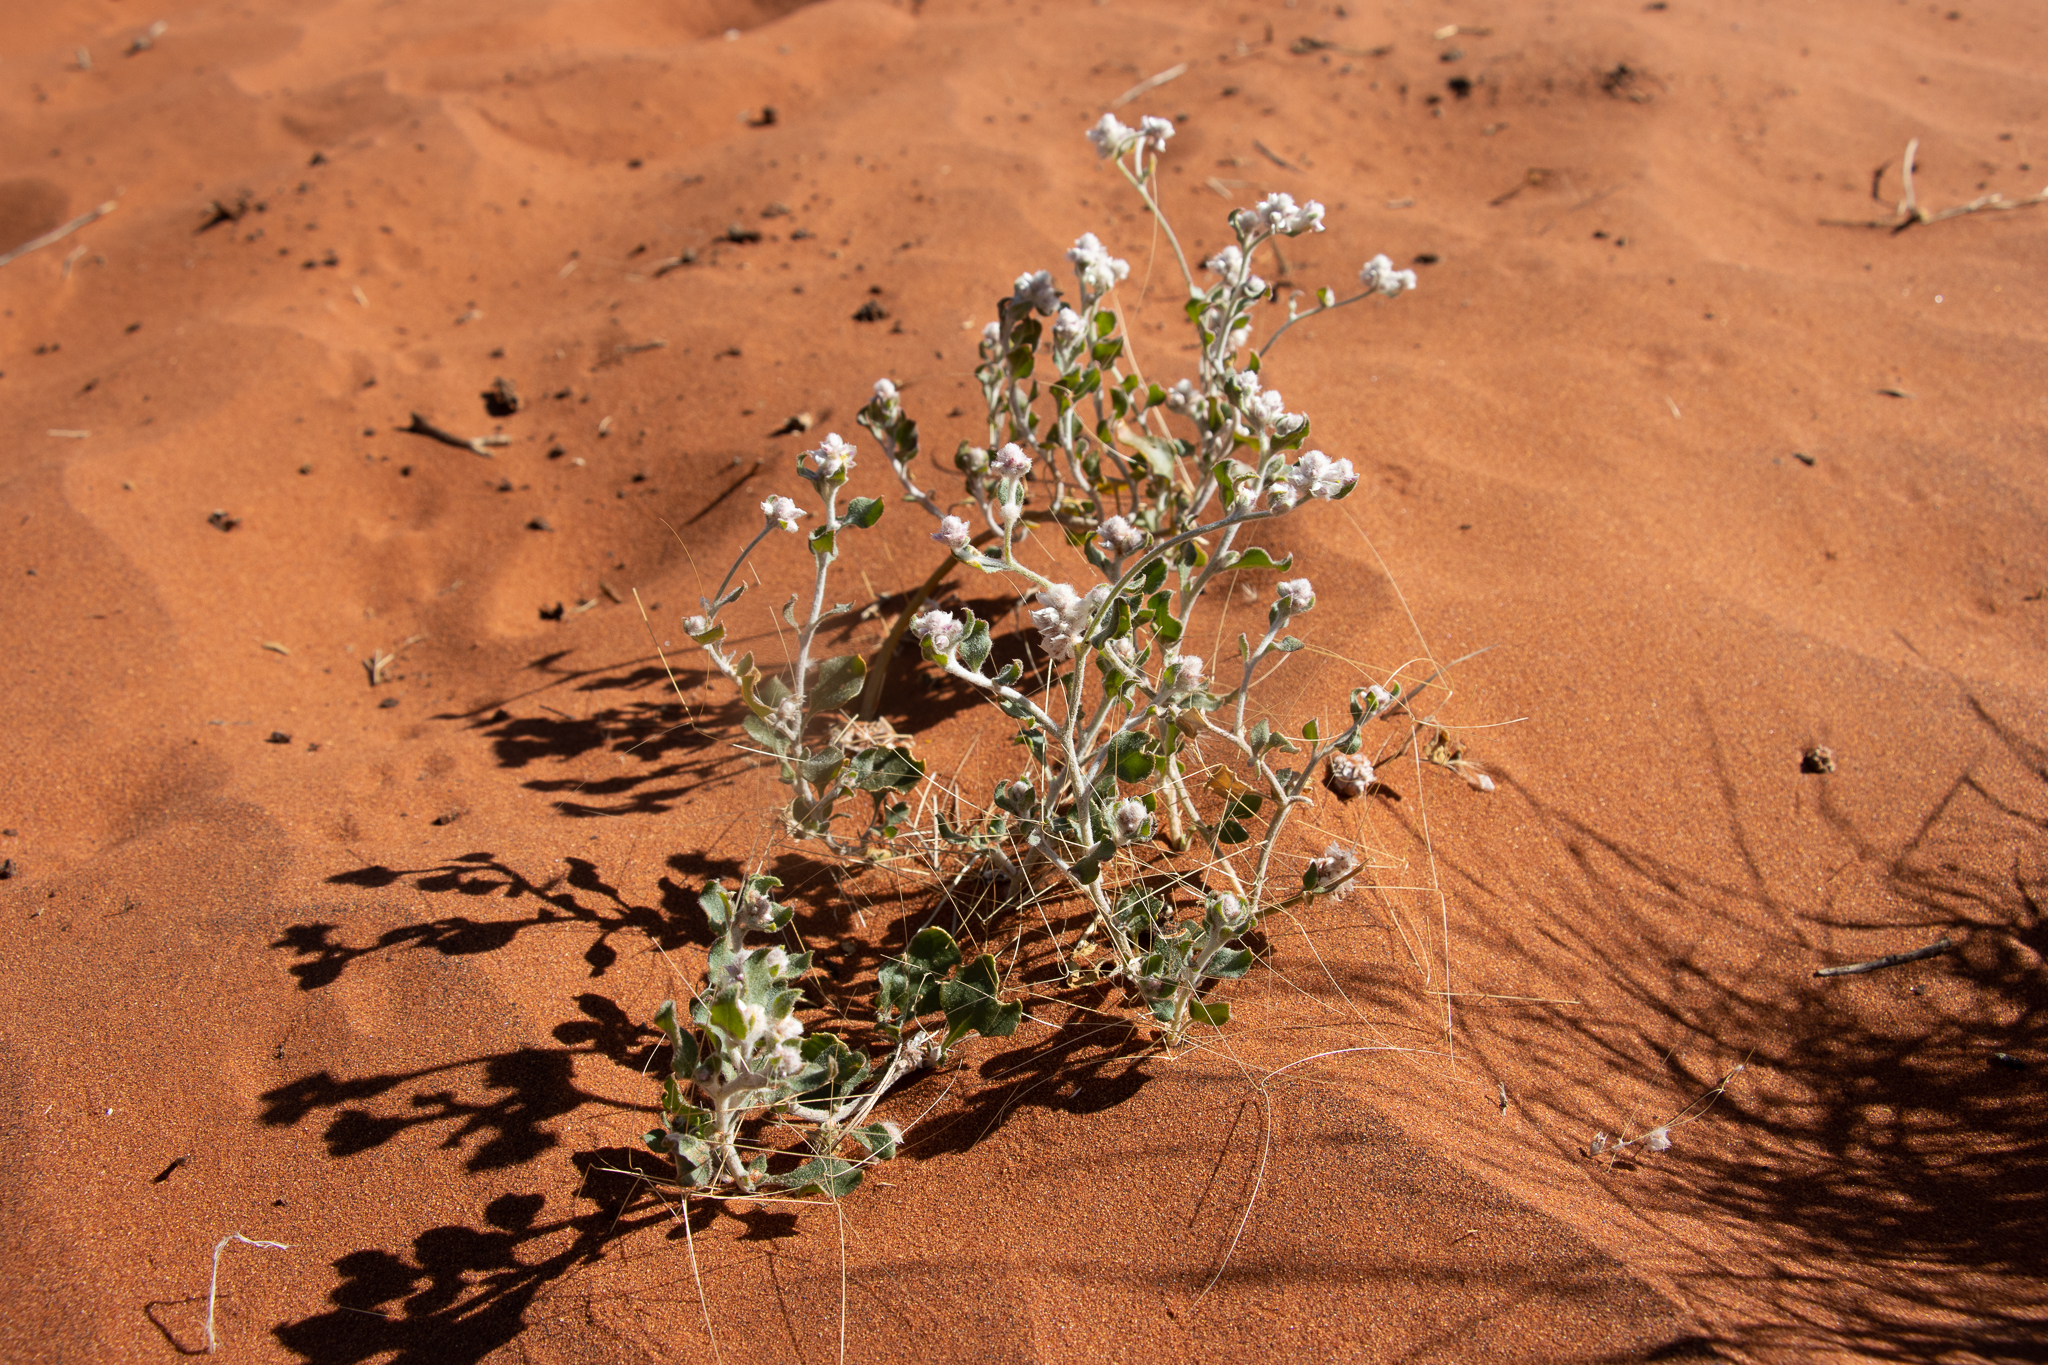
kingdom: Plantae
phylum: Tracheophyta
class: Magnoliopsida
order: Caryophyllales
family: Amaranthaceae
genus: Ptilotus
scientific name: Ptilotus latifolius
